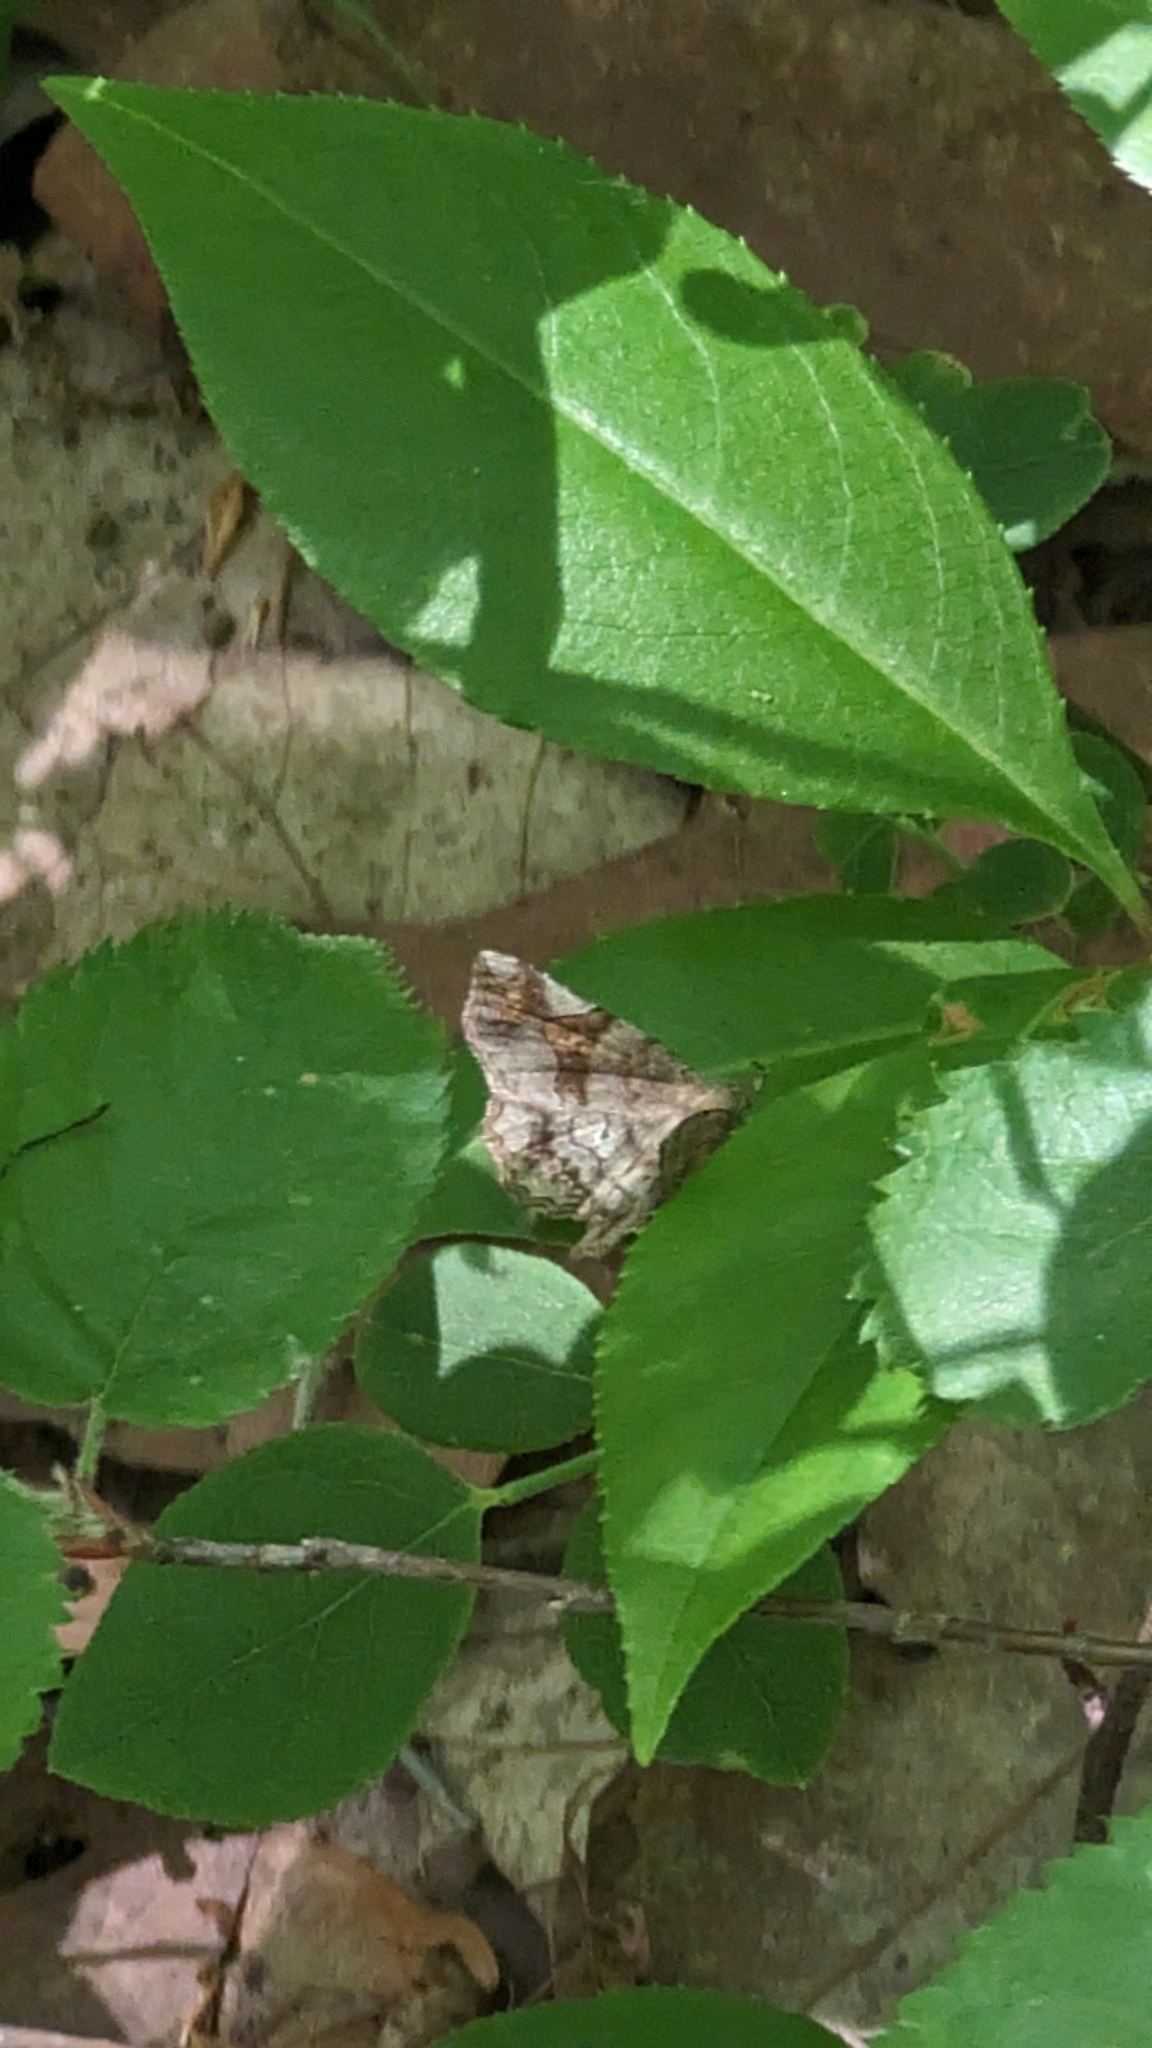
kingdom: Animalia
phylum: Arthropoda
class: Insecta
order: Lepidoptera
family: Erebidae
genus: Pangrapta
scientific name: Pangrapta decoralis
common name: Decorated owlet
